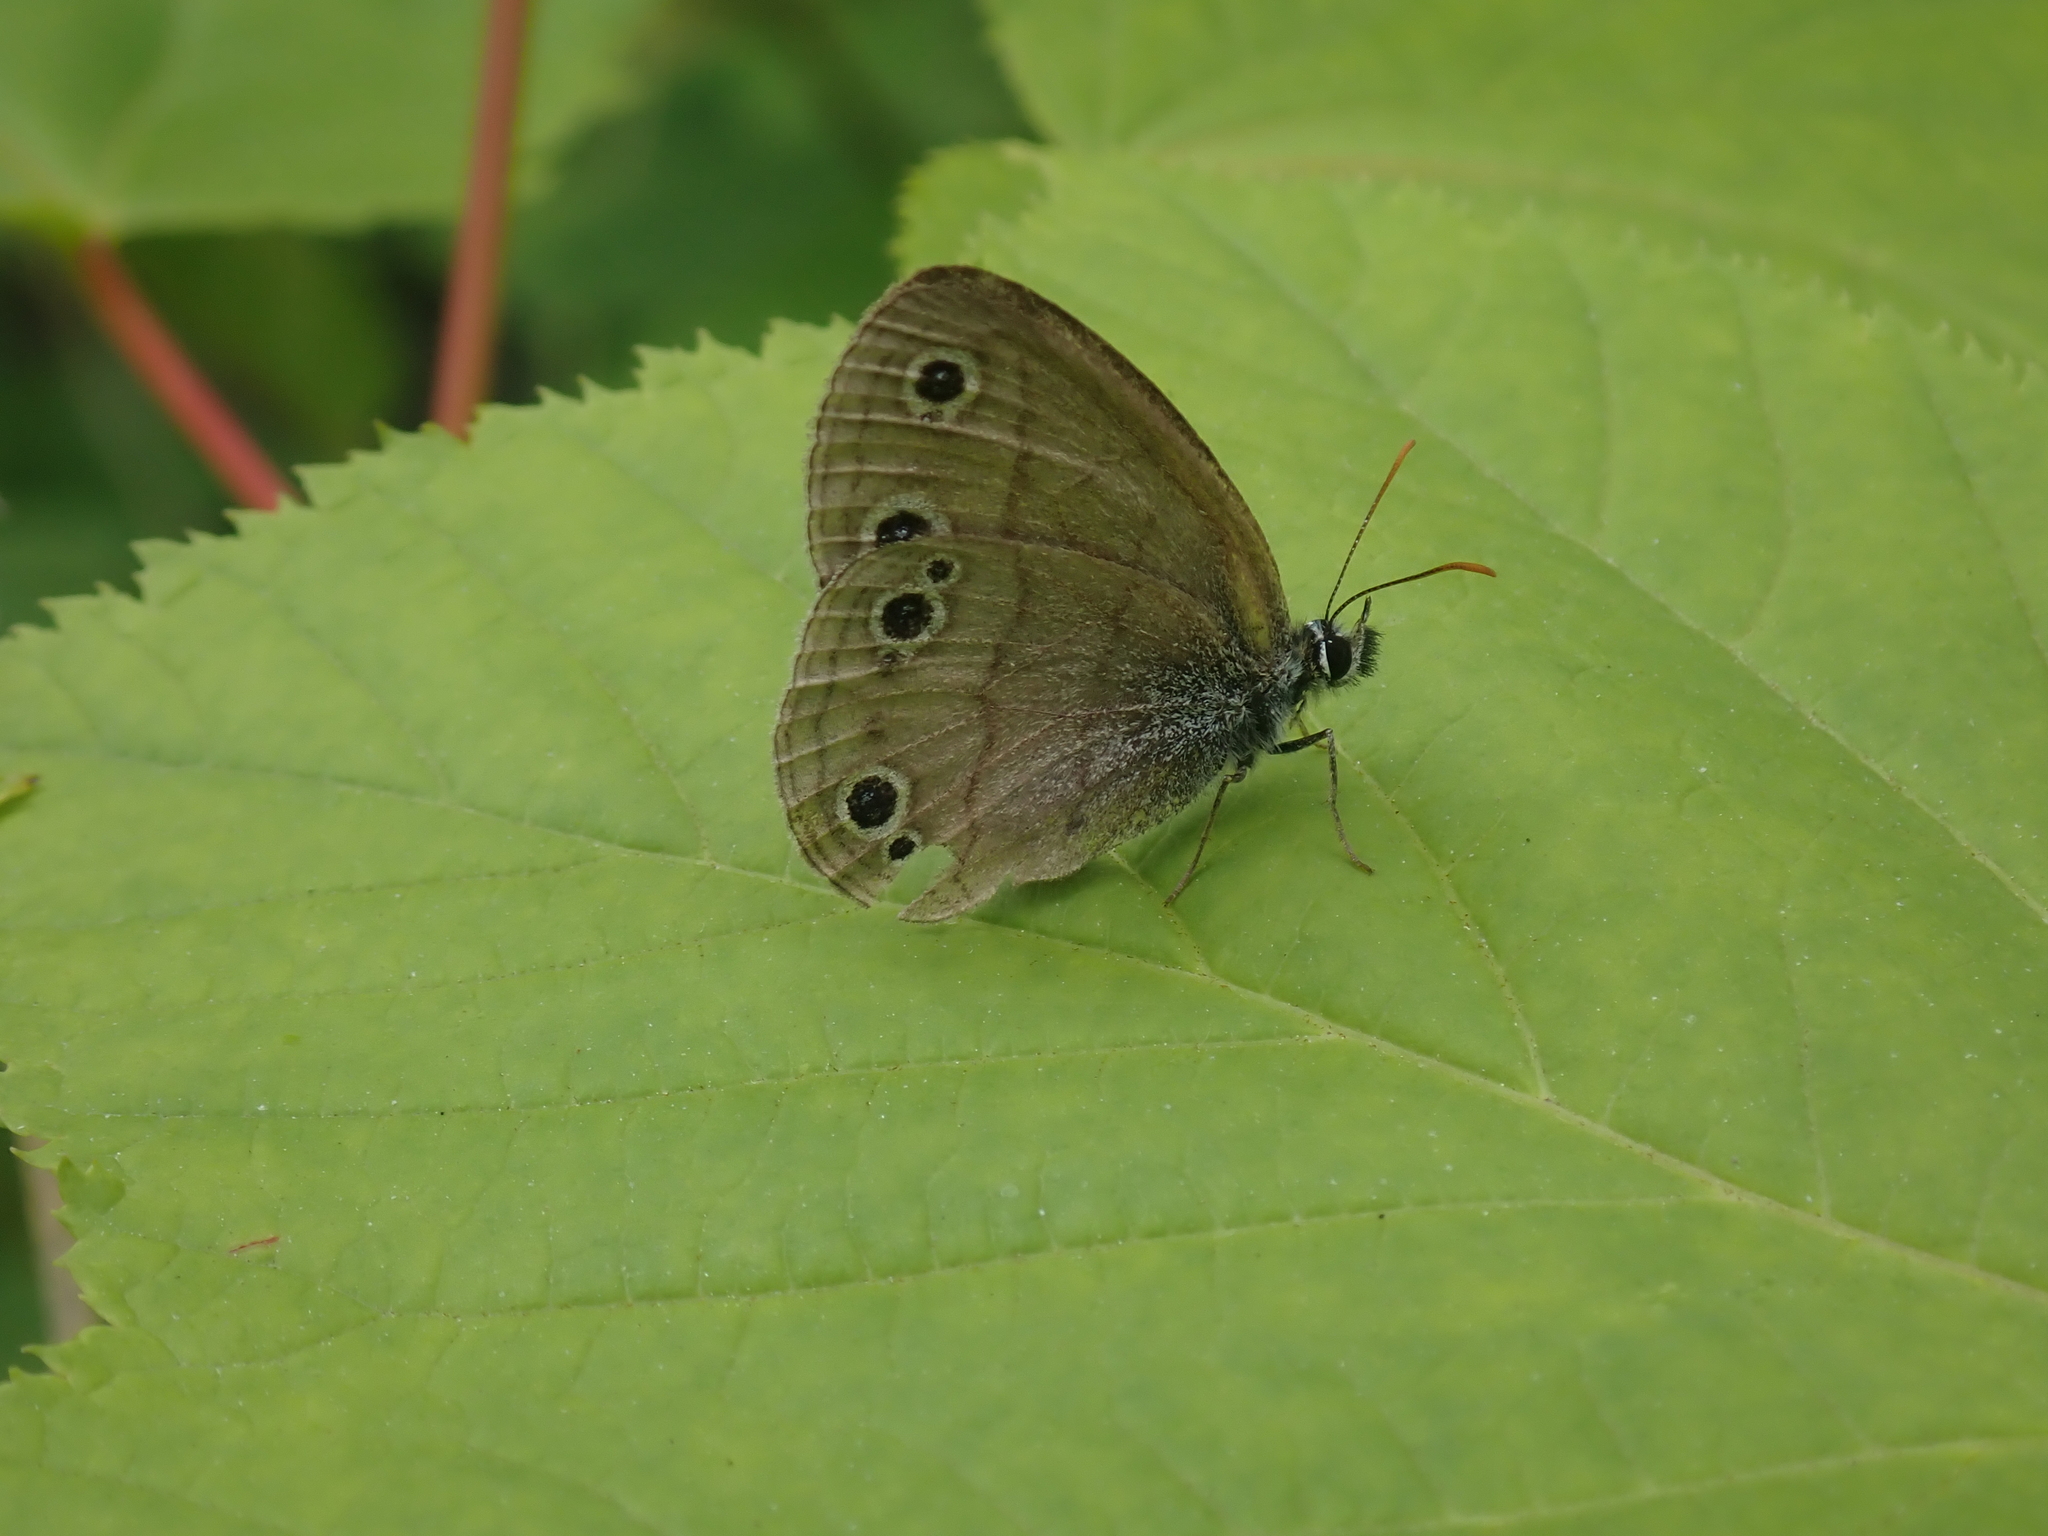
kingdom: Animalia
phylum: Arthropoda
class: Insecta
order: Lepidoptera
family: Nymphalidae
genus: Euptychia
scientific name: Euptychia cymela
